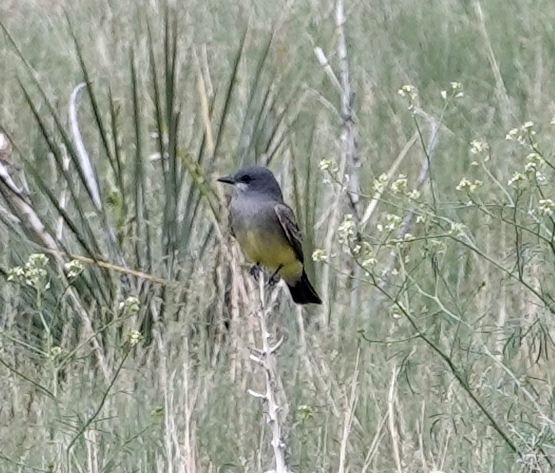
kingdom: Animalia
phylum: Chordata
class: Aves
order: Passeriformes
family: Tyrannidae
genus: Tyrannus
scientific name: Tyrannus vociferans
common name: Cassin's kingbird
